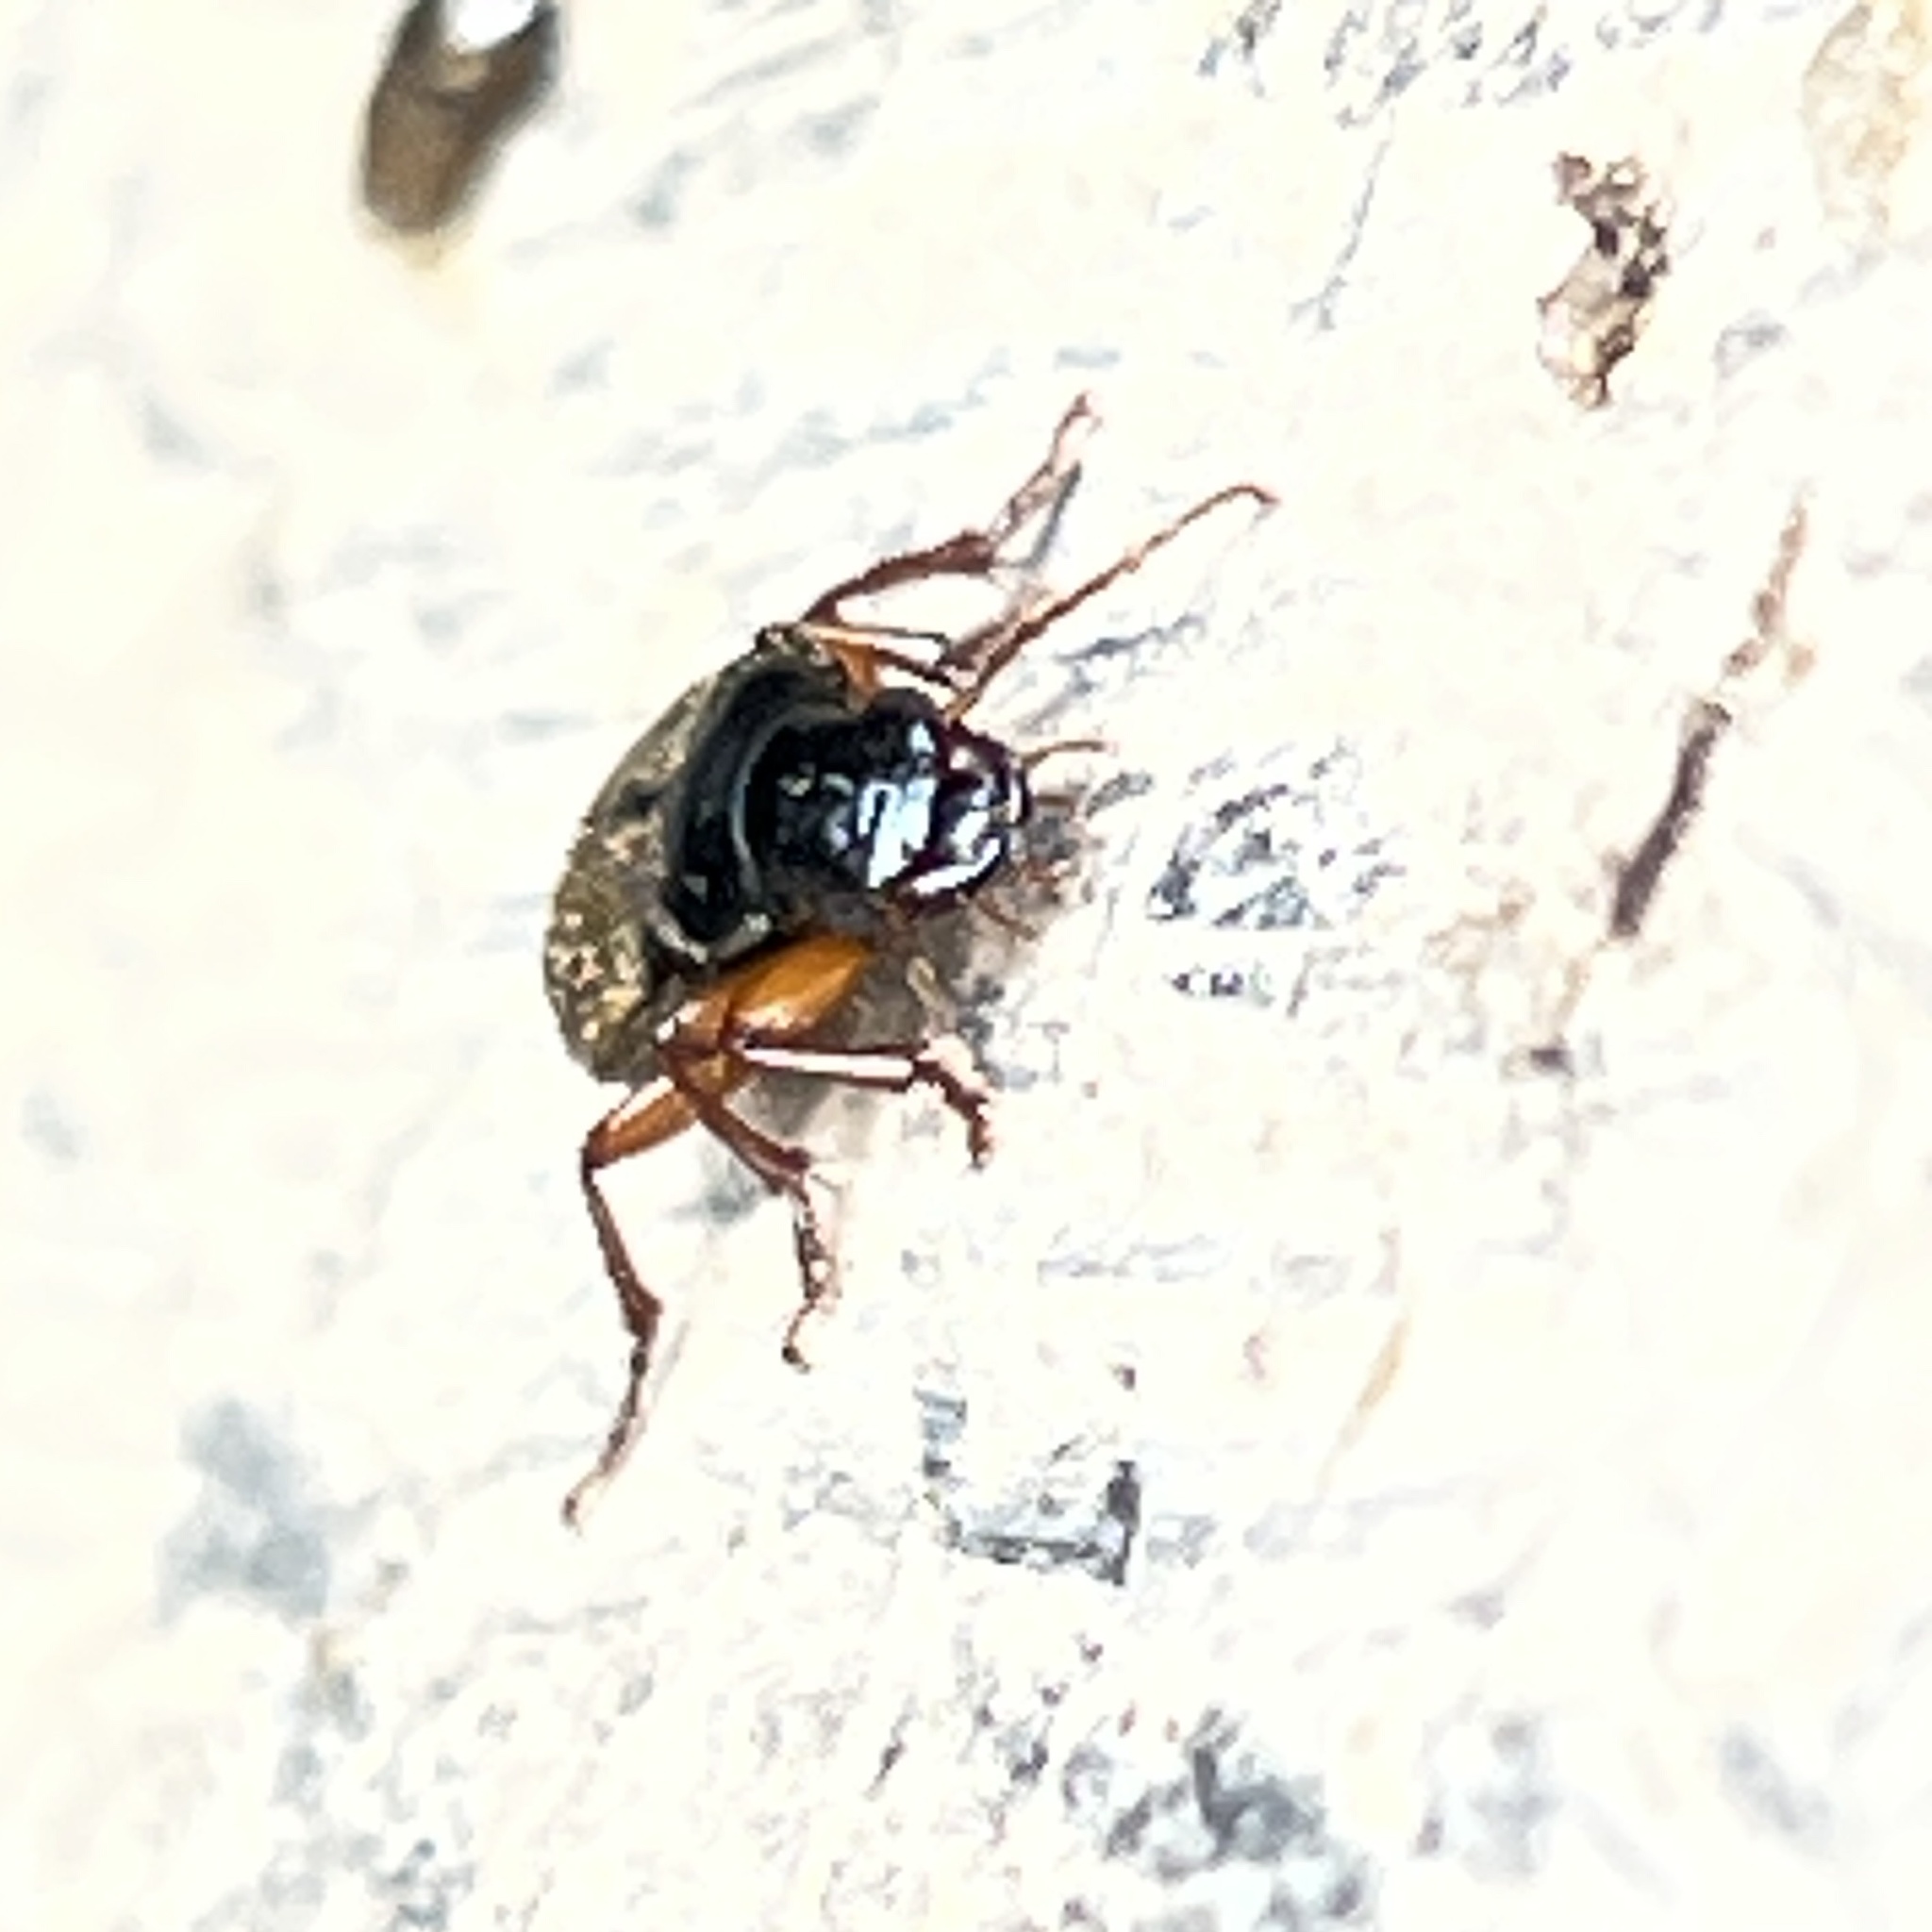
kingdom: Animalia
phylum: Arthropoda
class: Insecta
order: Coleoptera
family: Carabidae
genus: Harpalus
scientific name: Harpalus rufipes
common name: Strawberry harp ground beetle
